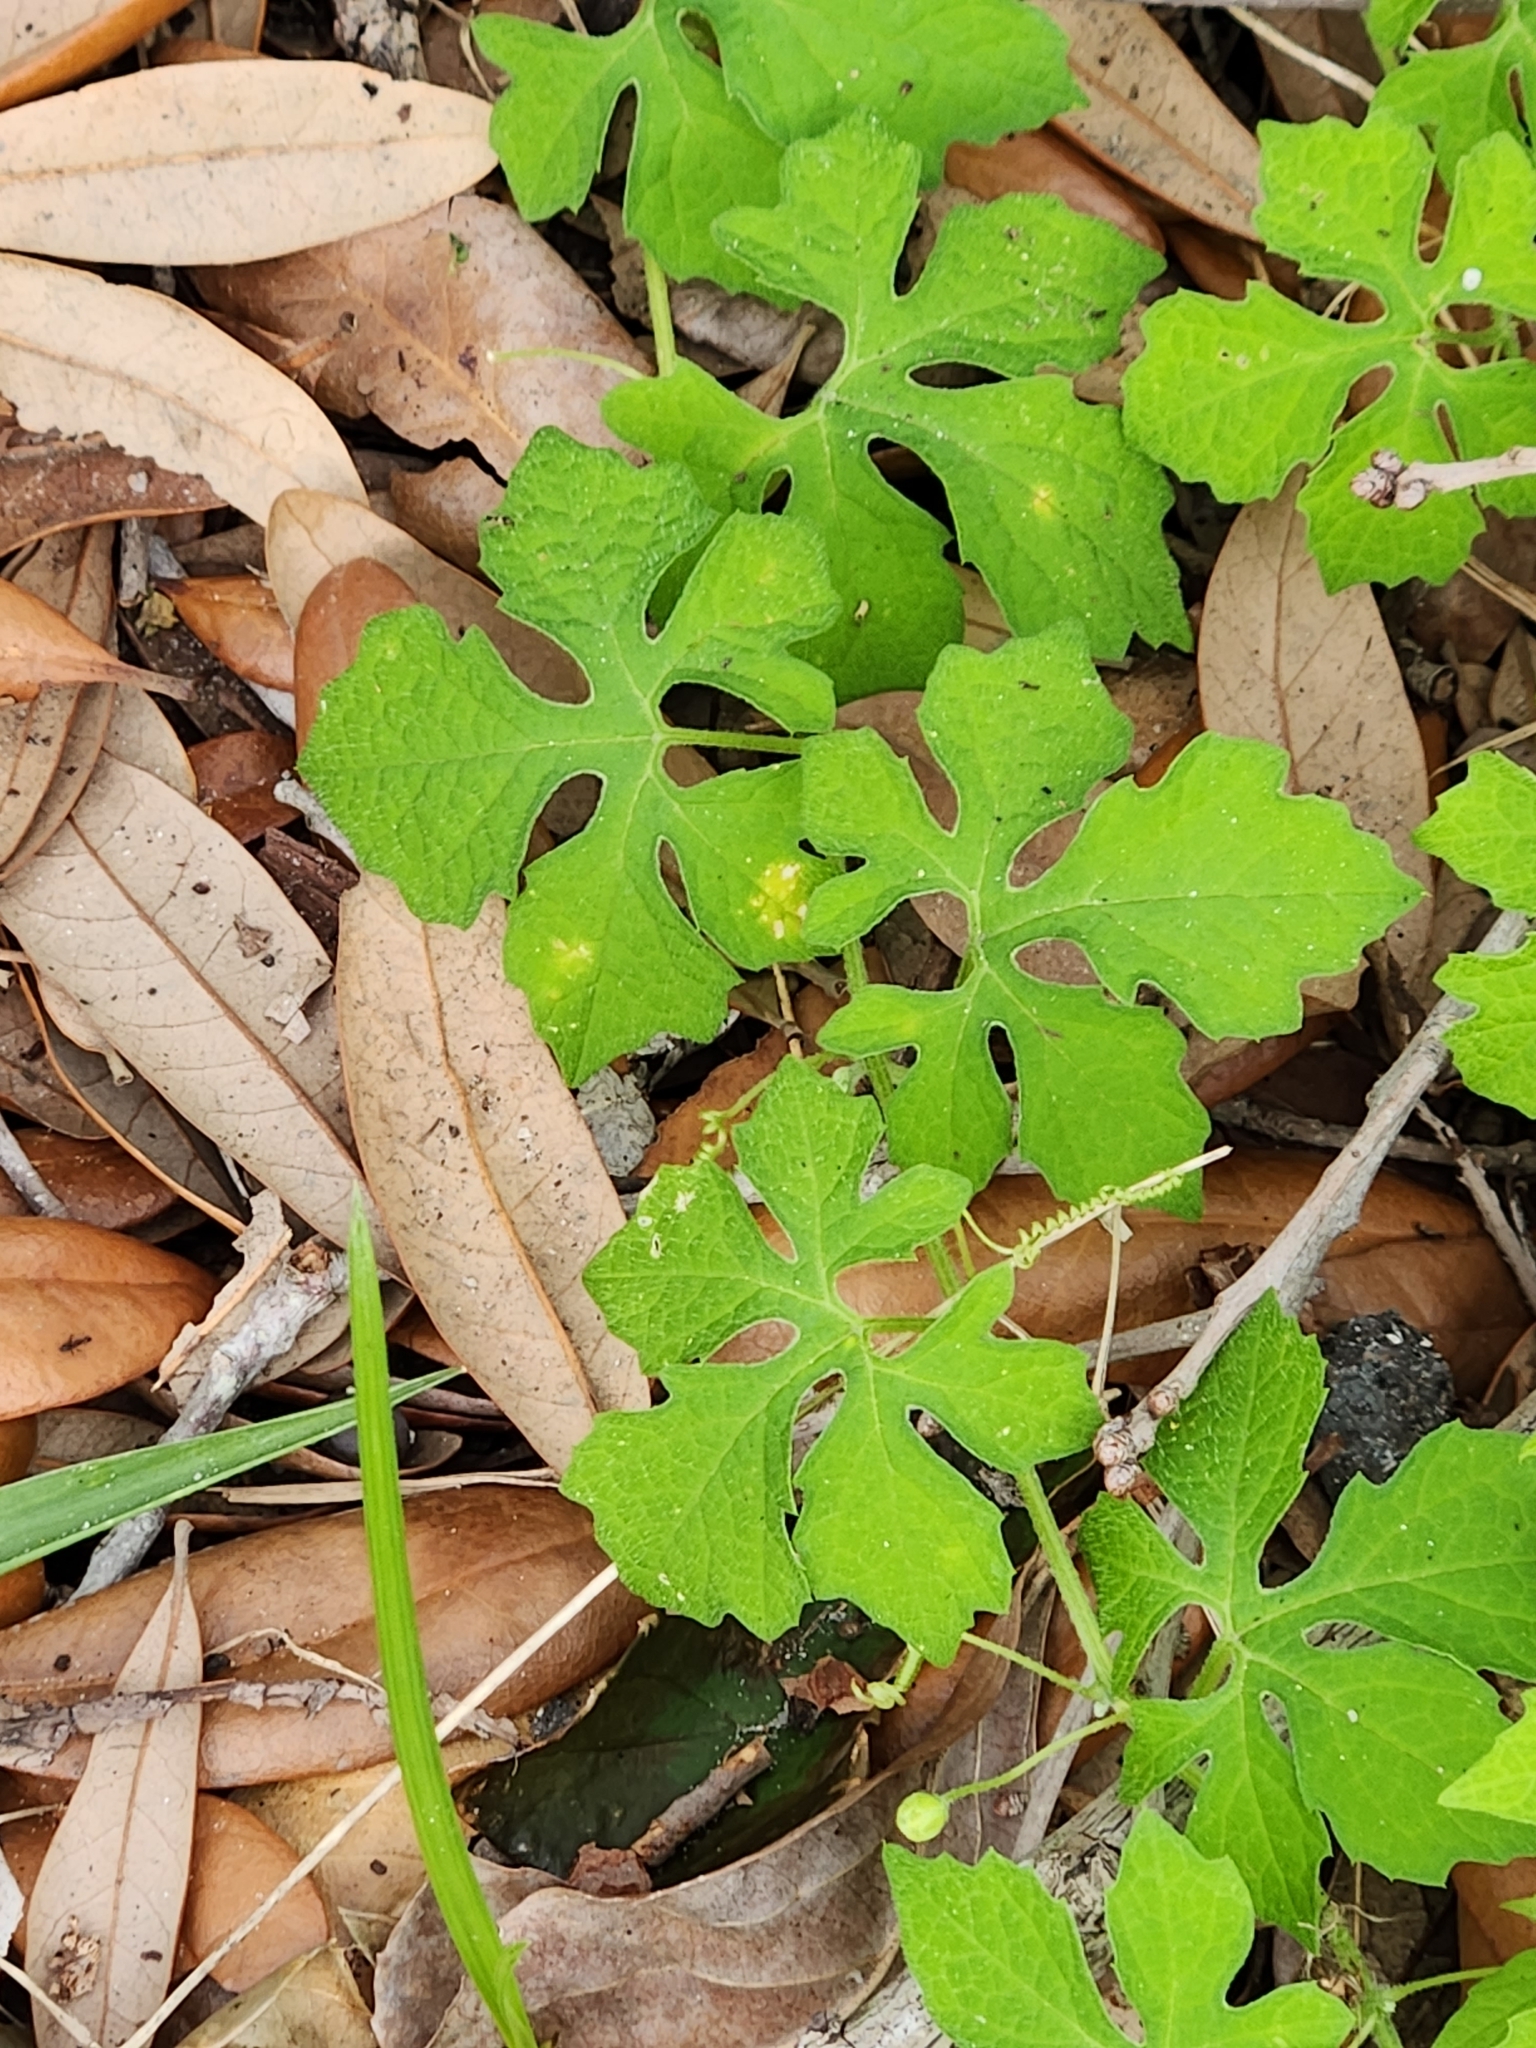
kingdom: Plantae
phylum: Tracheophyta
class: Magnoliopsida
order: Cucurbitales
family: Cucurbitaceae
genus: Momordica
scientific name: Momordica charantia
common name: Balsampear
